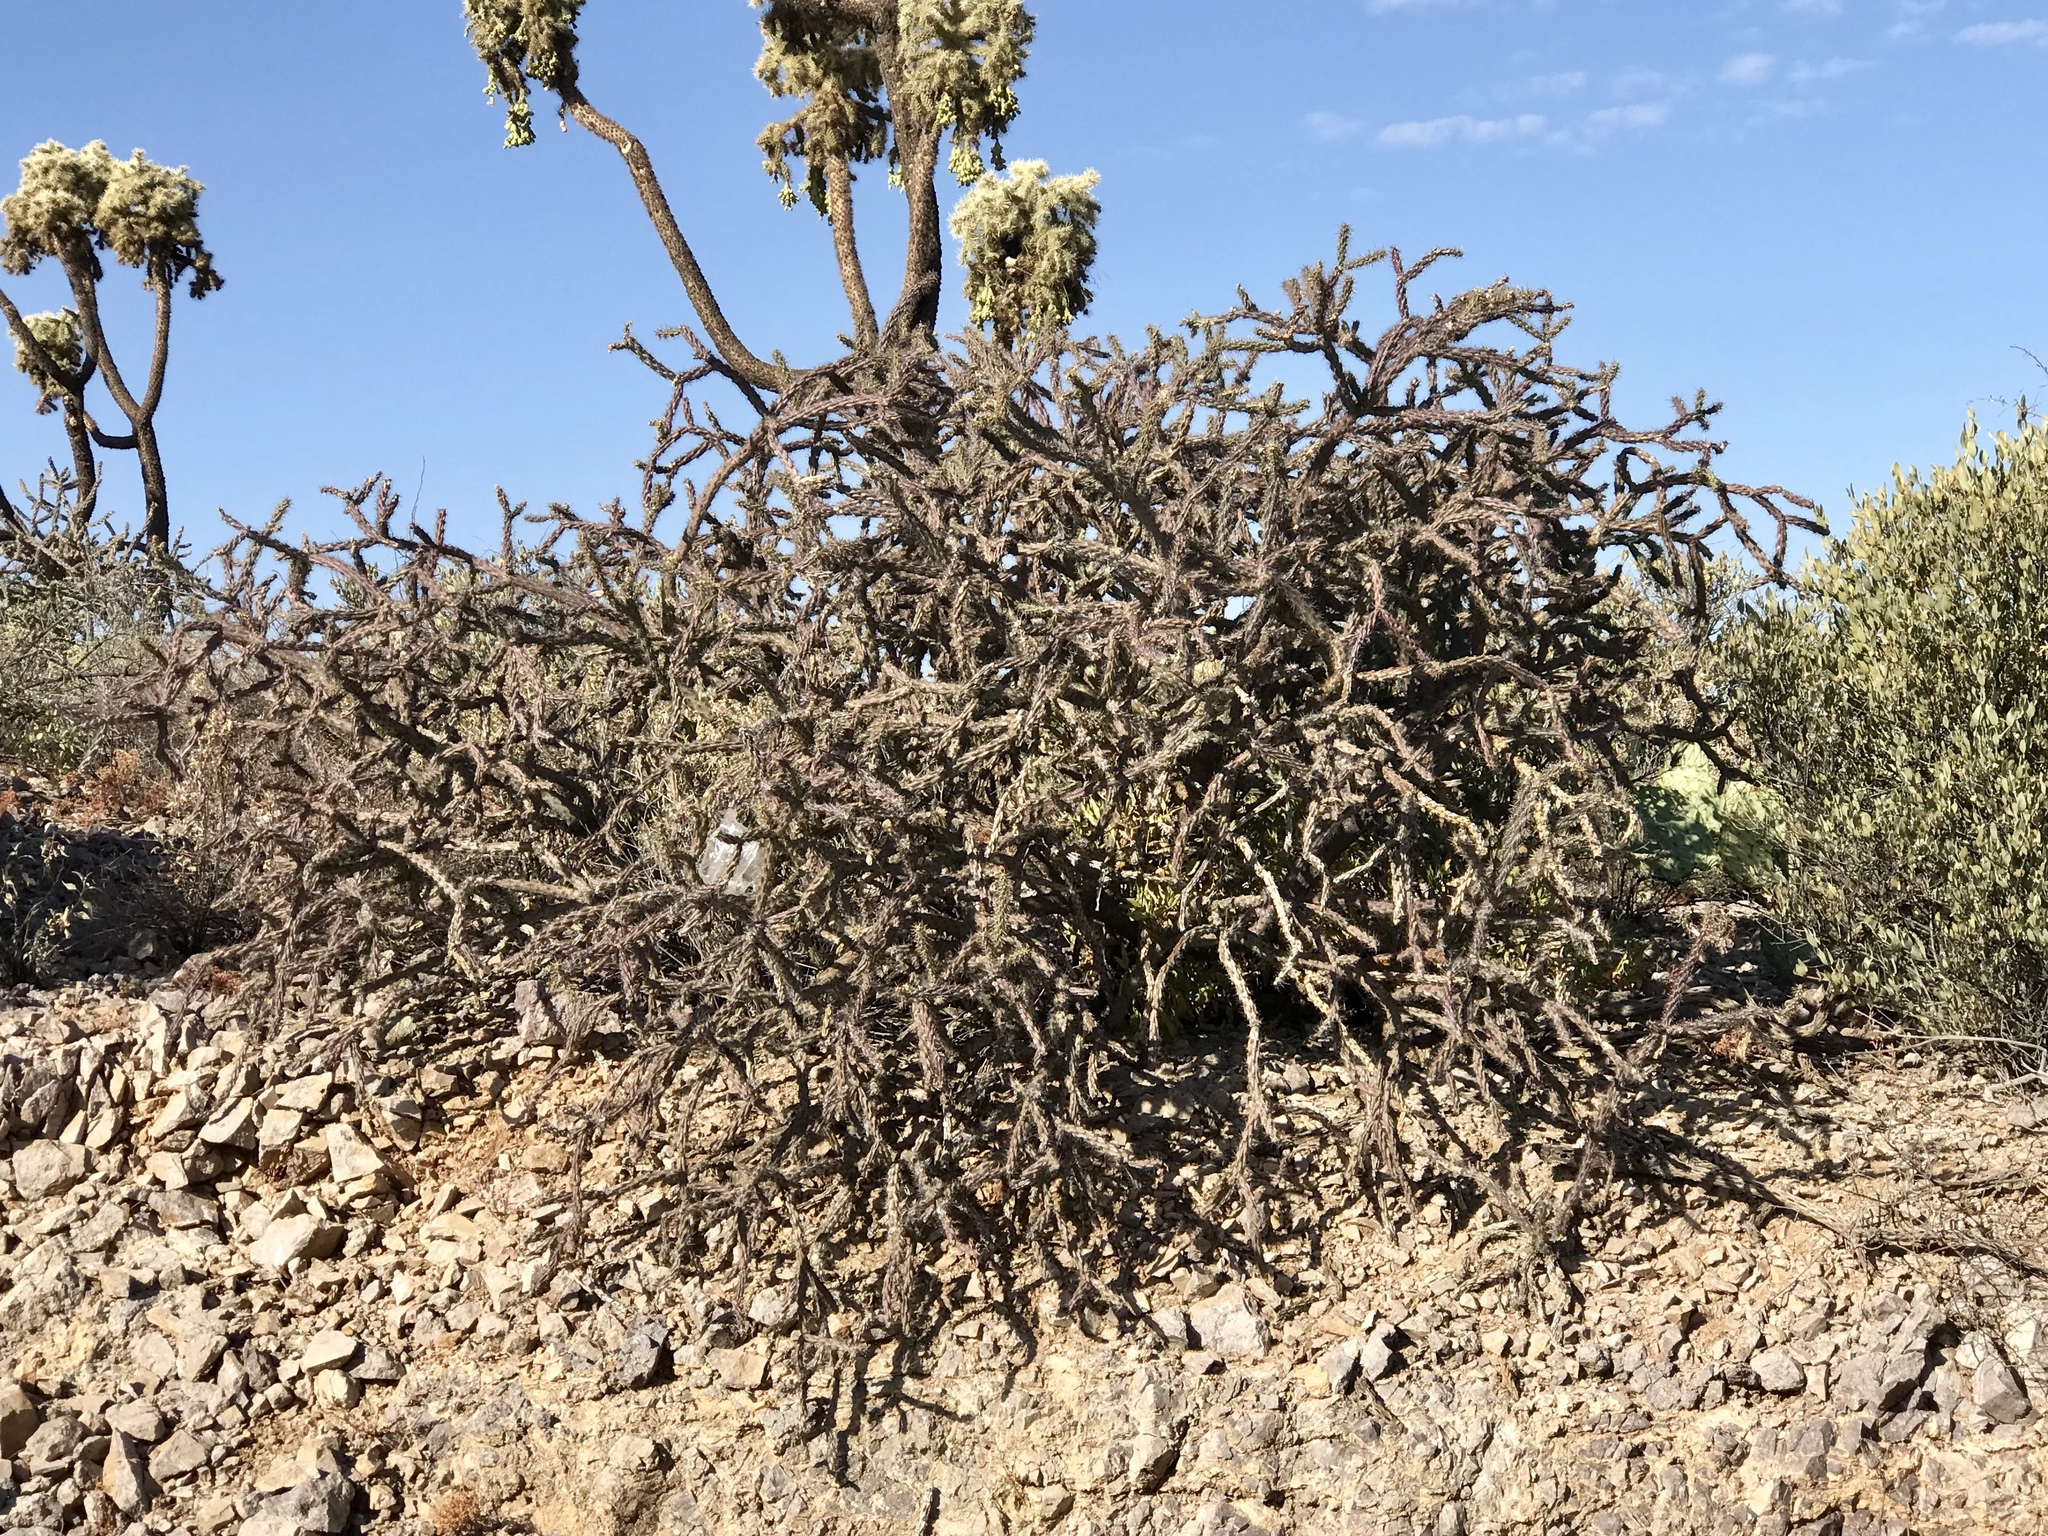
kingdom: Plantae
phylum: Tracheophyta
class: Magnoliopsida
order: Caryophyllales
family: Cactaceae
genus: Cylindropuntia
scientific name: Cylindropuntia thurberi
